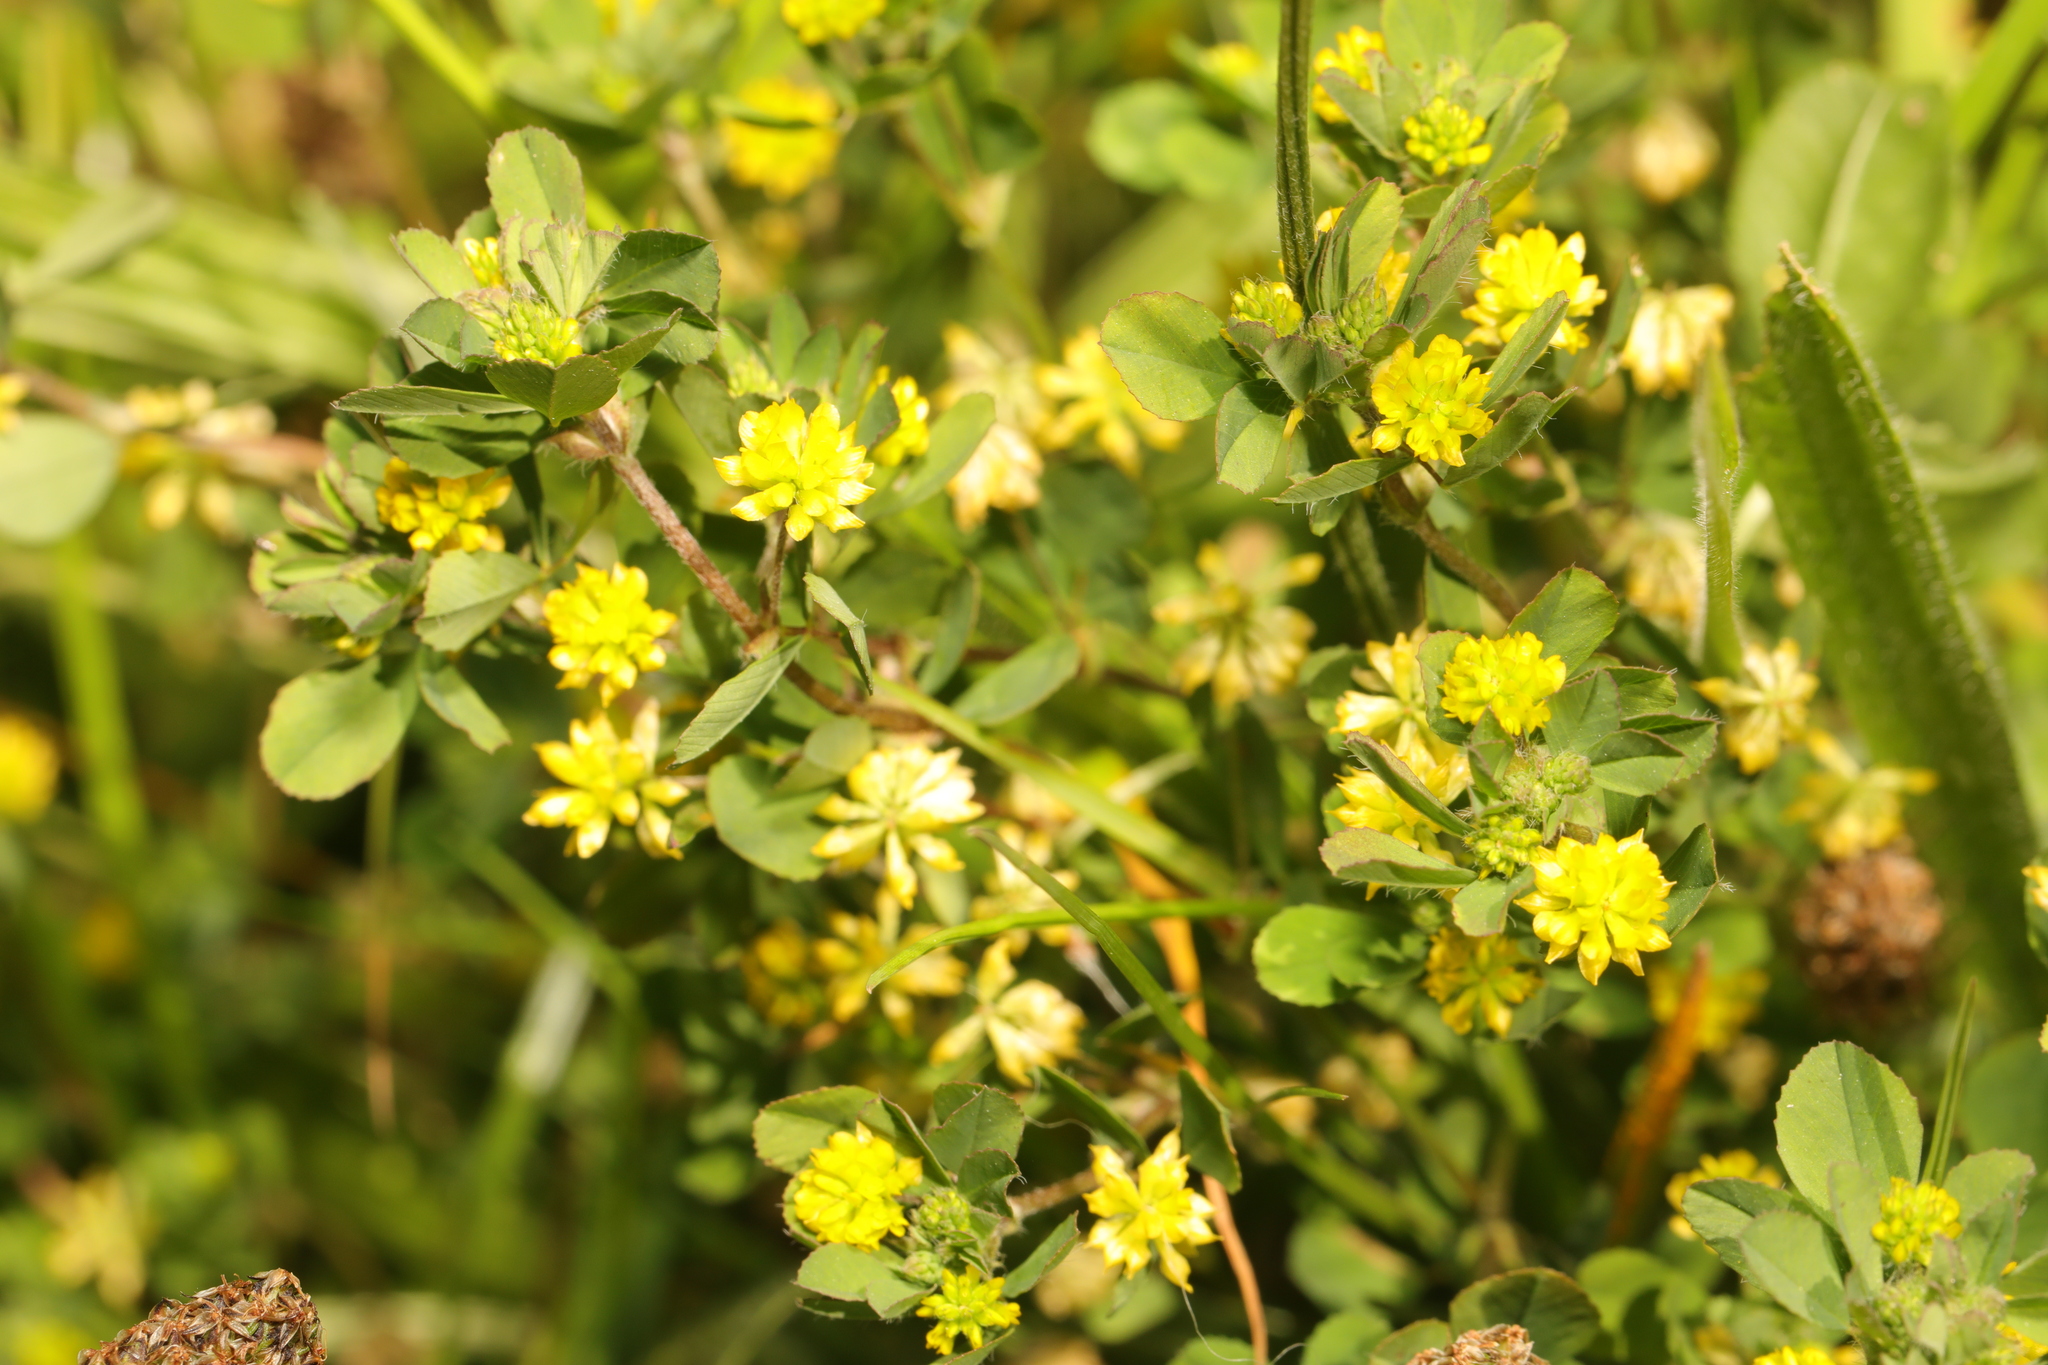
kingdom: Plantae
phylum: Tracheophyta
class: Magnoliopsida
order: Fabales
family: Fabaceae
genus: Trifolium
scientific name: Trifolium dubium
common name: Suckling clover
